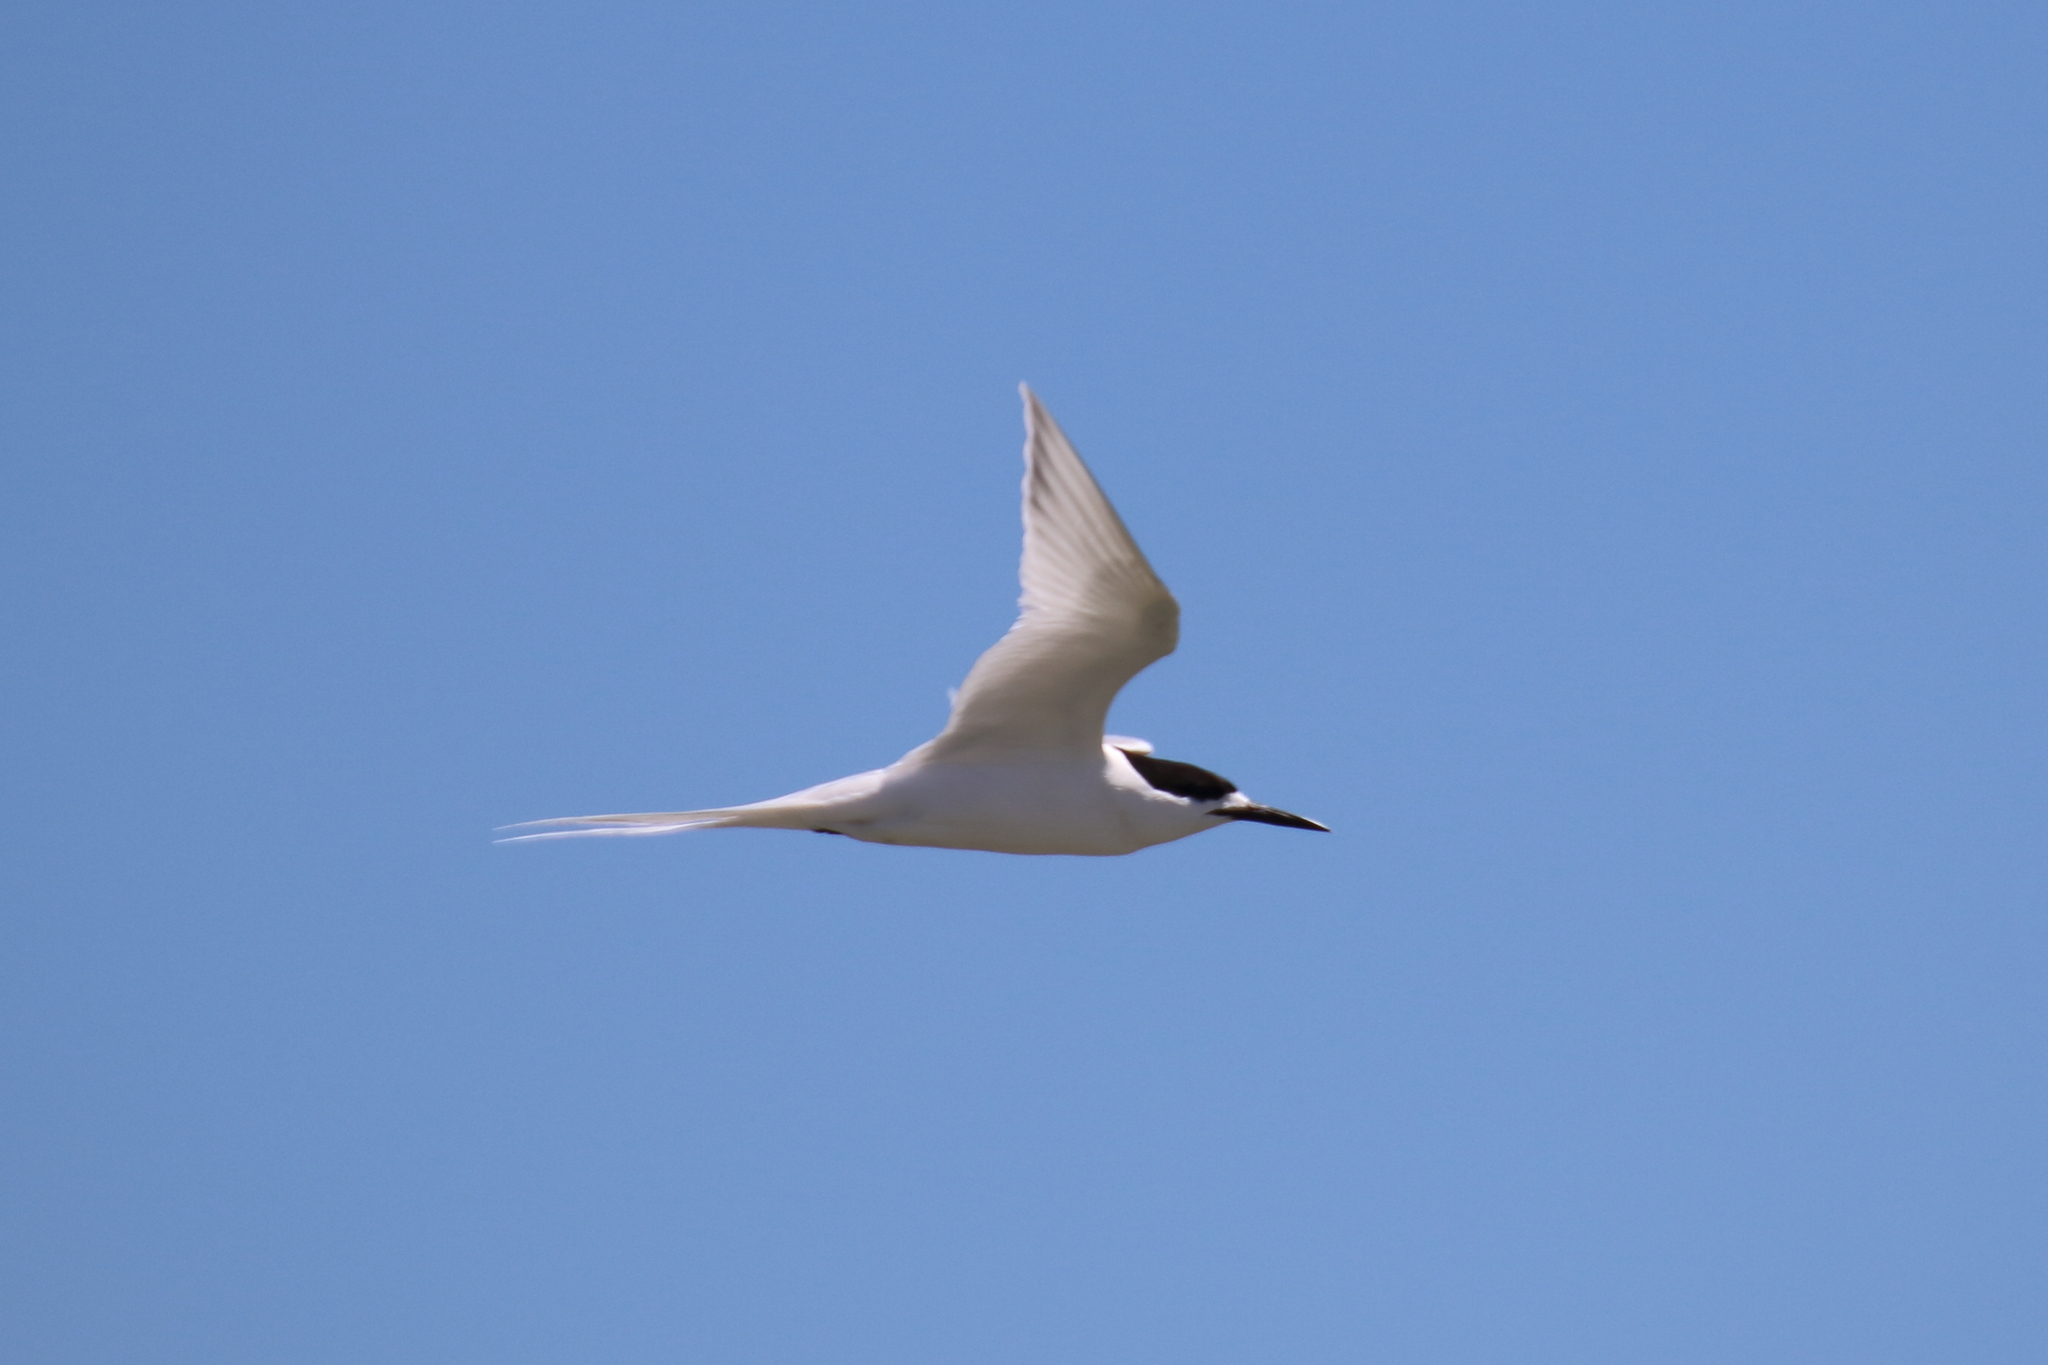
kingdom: Animalia
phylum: Chordata
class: Aves
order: Charadriiformes
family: Laridae
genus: Sterna
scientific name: Sterna striata
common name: White-fronted tern
